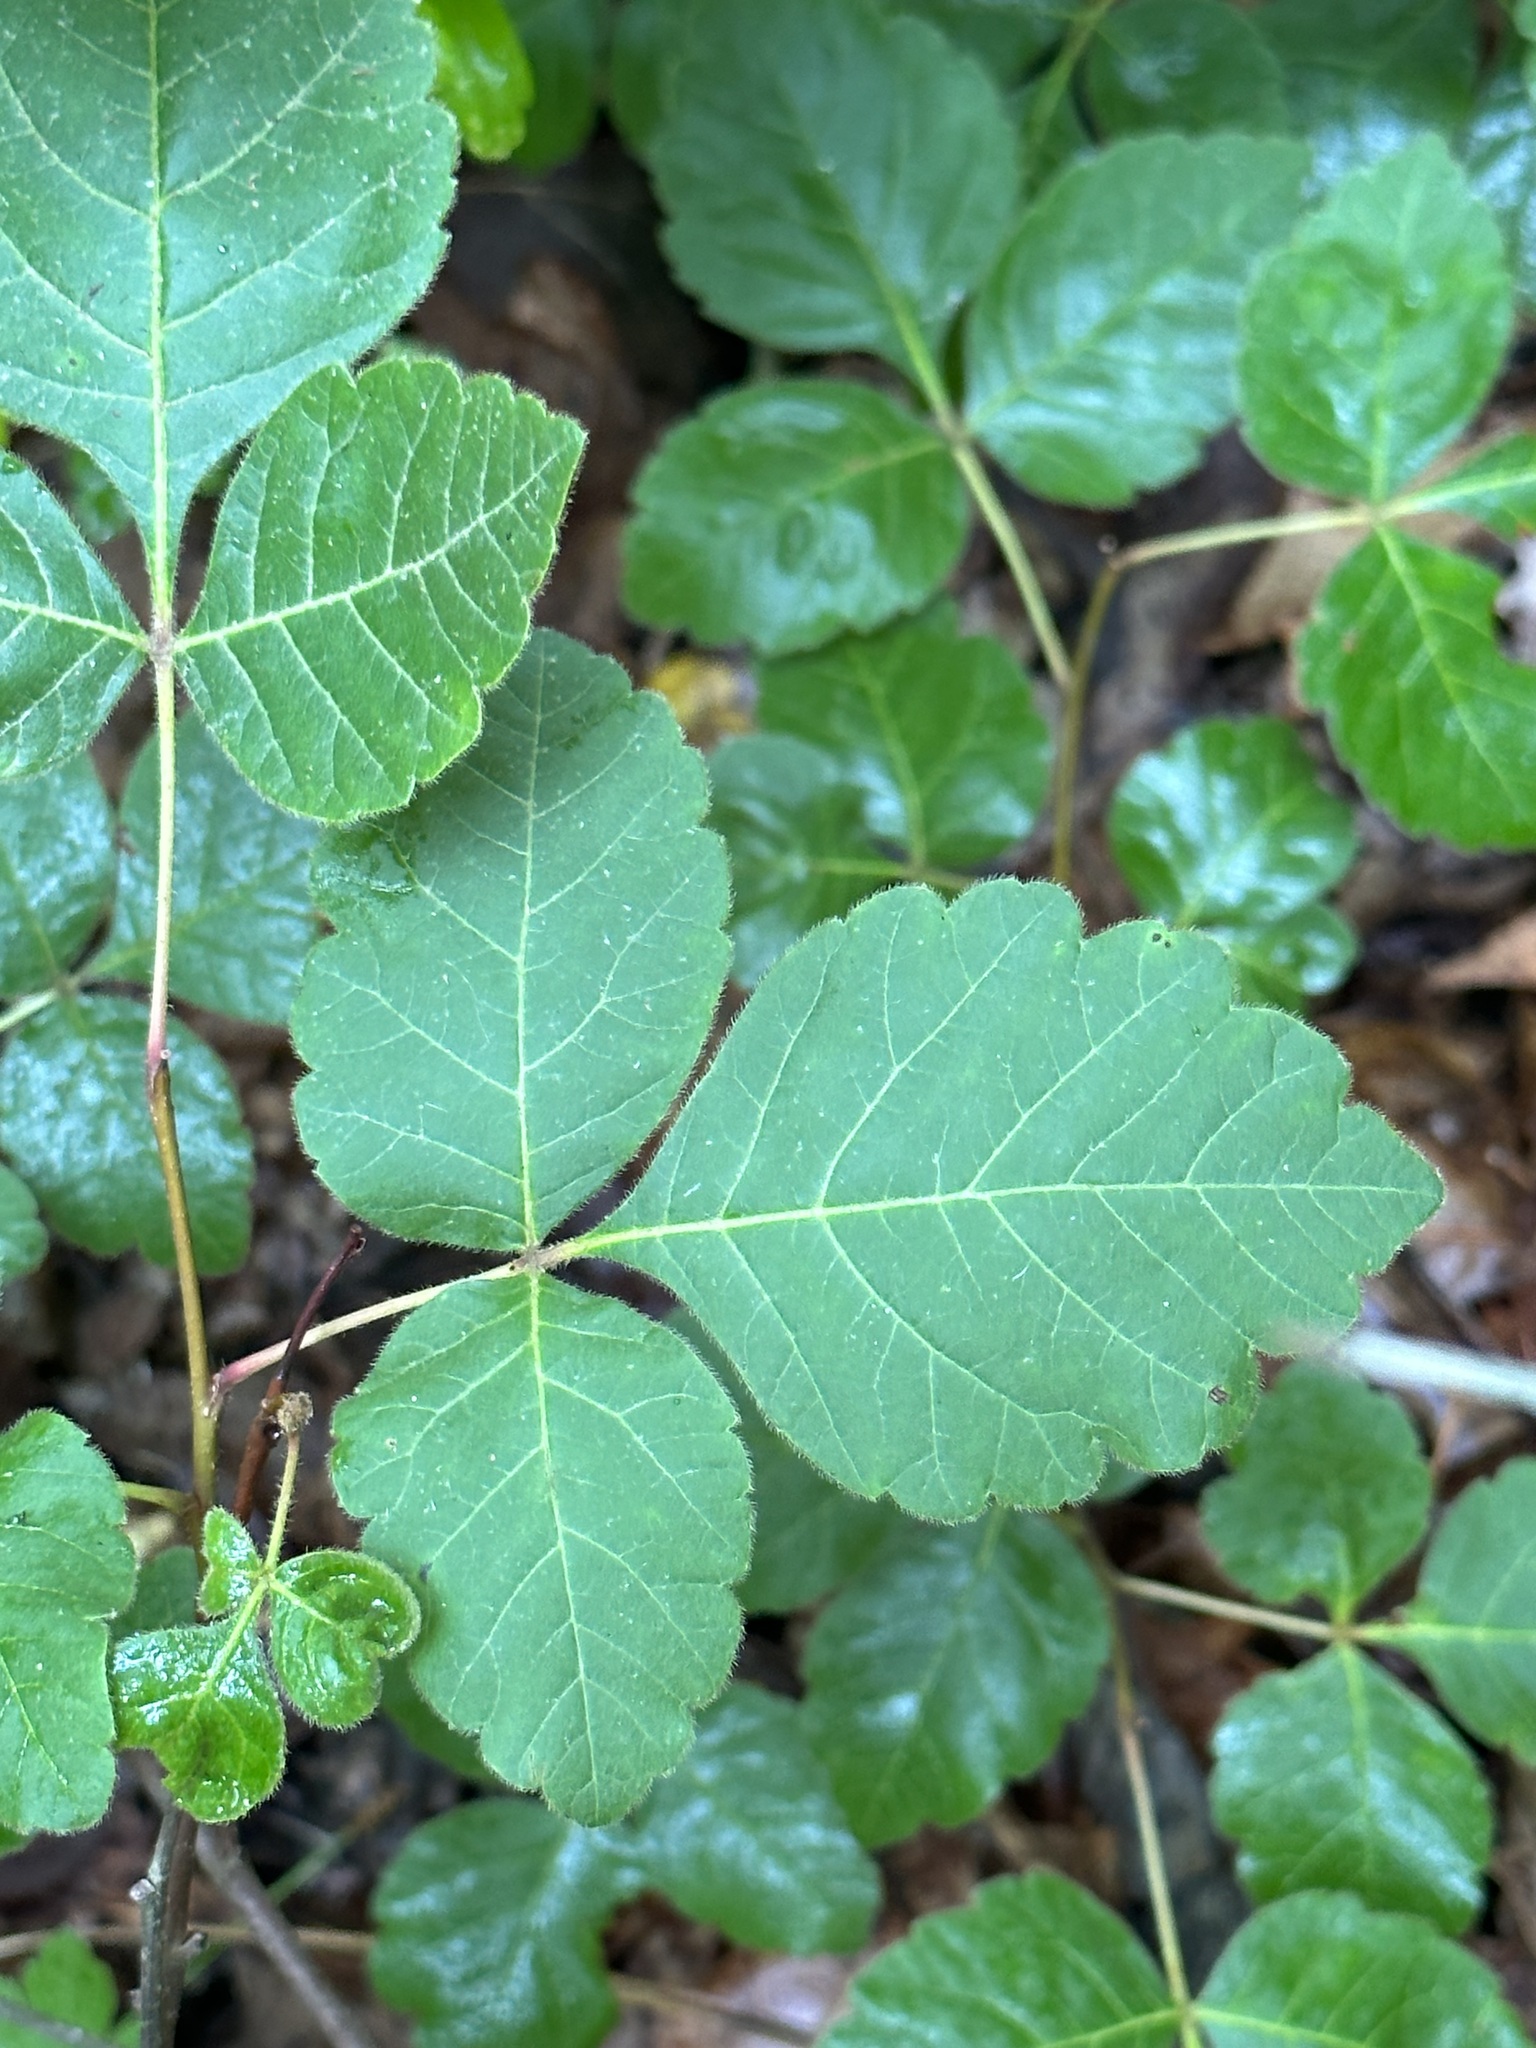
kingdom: Plantae
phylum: Tracheophyta
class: Magnoliopsida
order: Sapindales
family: Anacardiaceae
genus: Rhus
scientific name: Rhus aromatica
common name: Aromatic sumac
